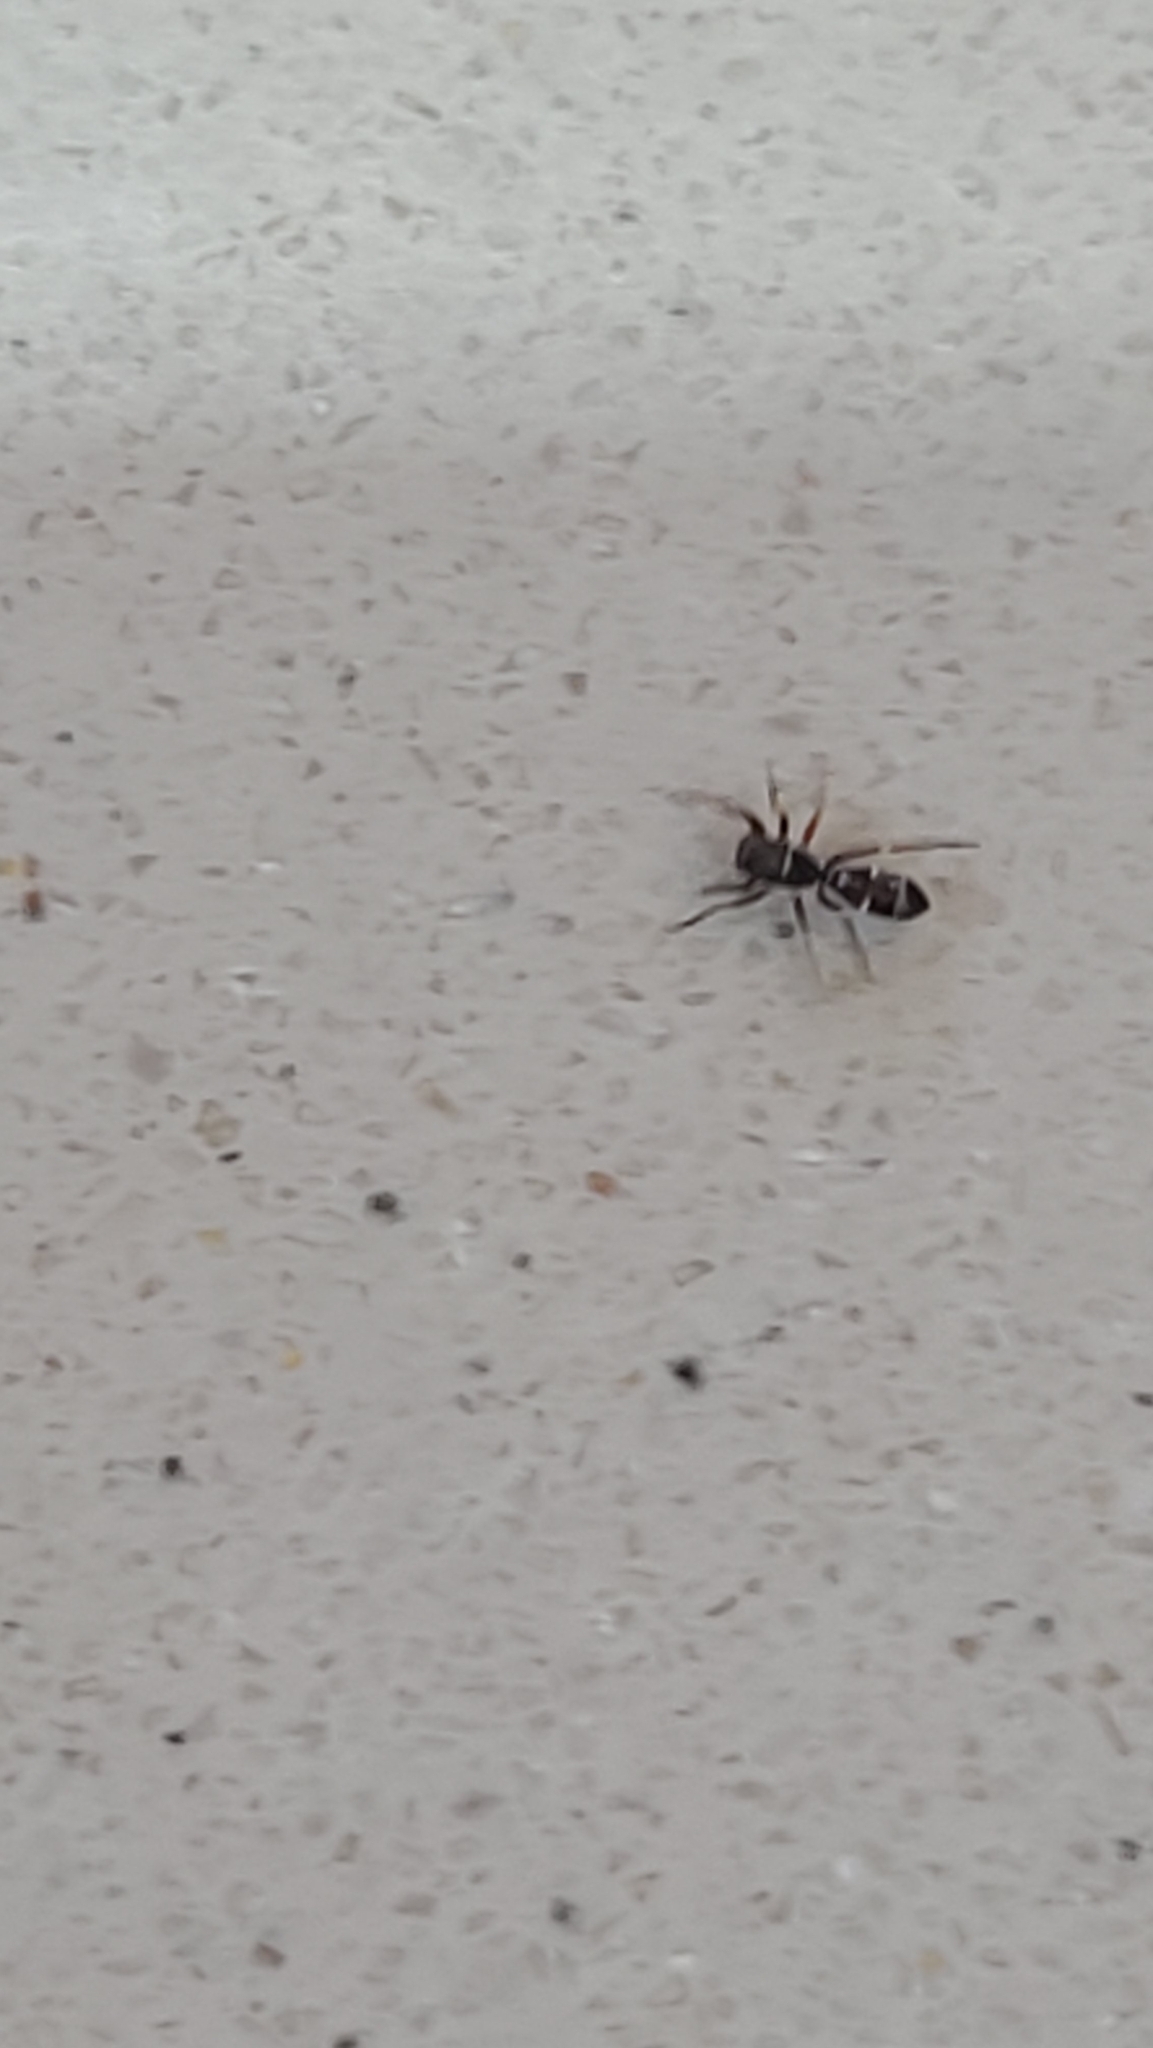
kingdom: Animalia
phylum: Arthropoda
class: Arachnida
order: Araneae
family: Salticidae
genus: Synageles
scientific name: Synageles venator
